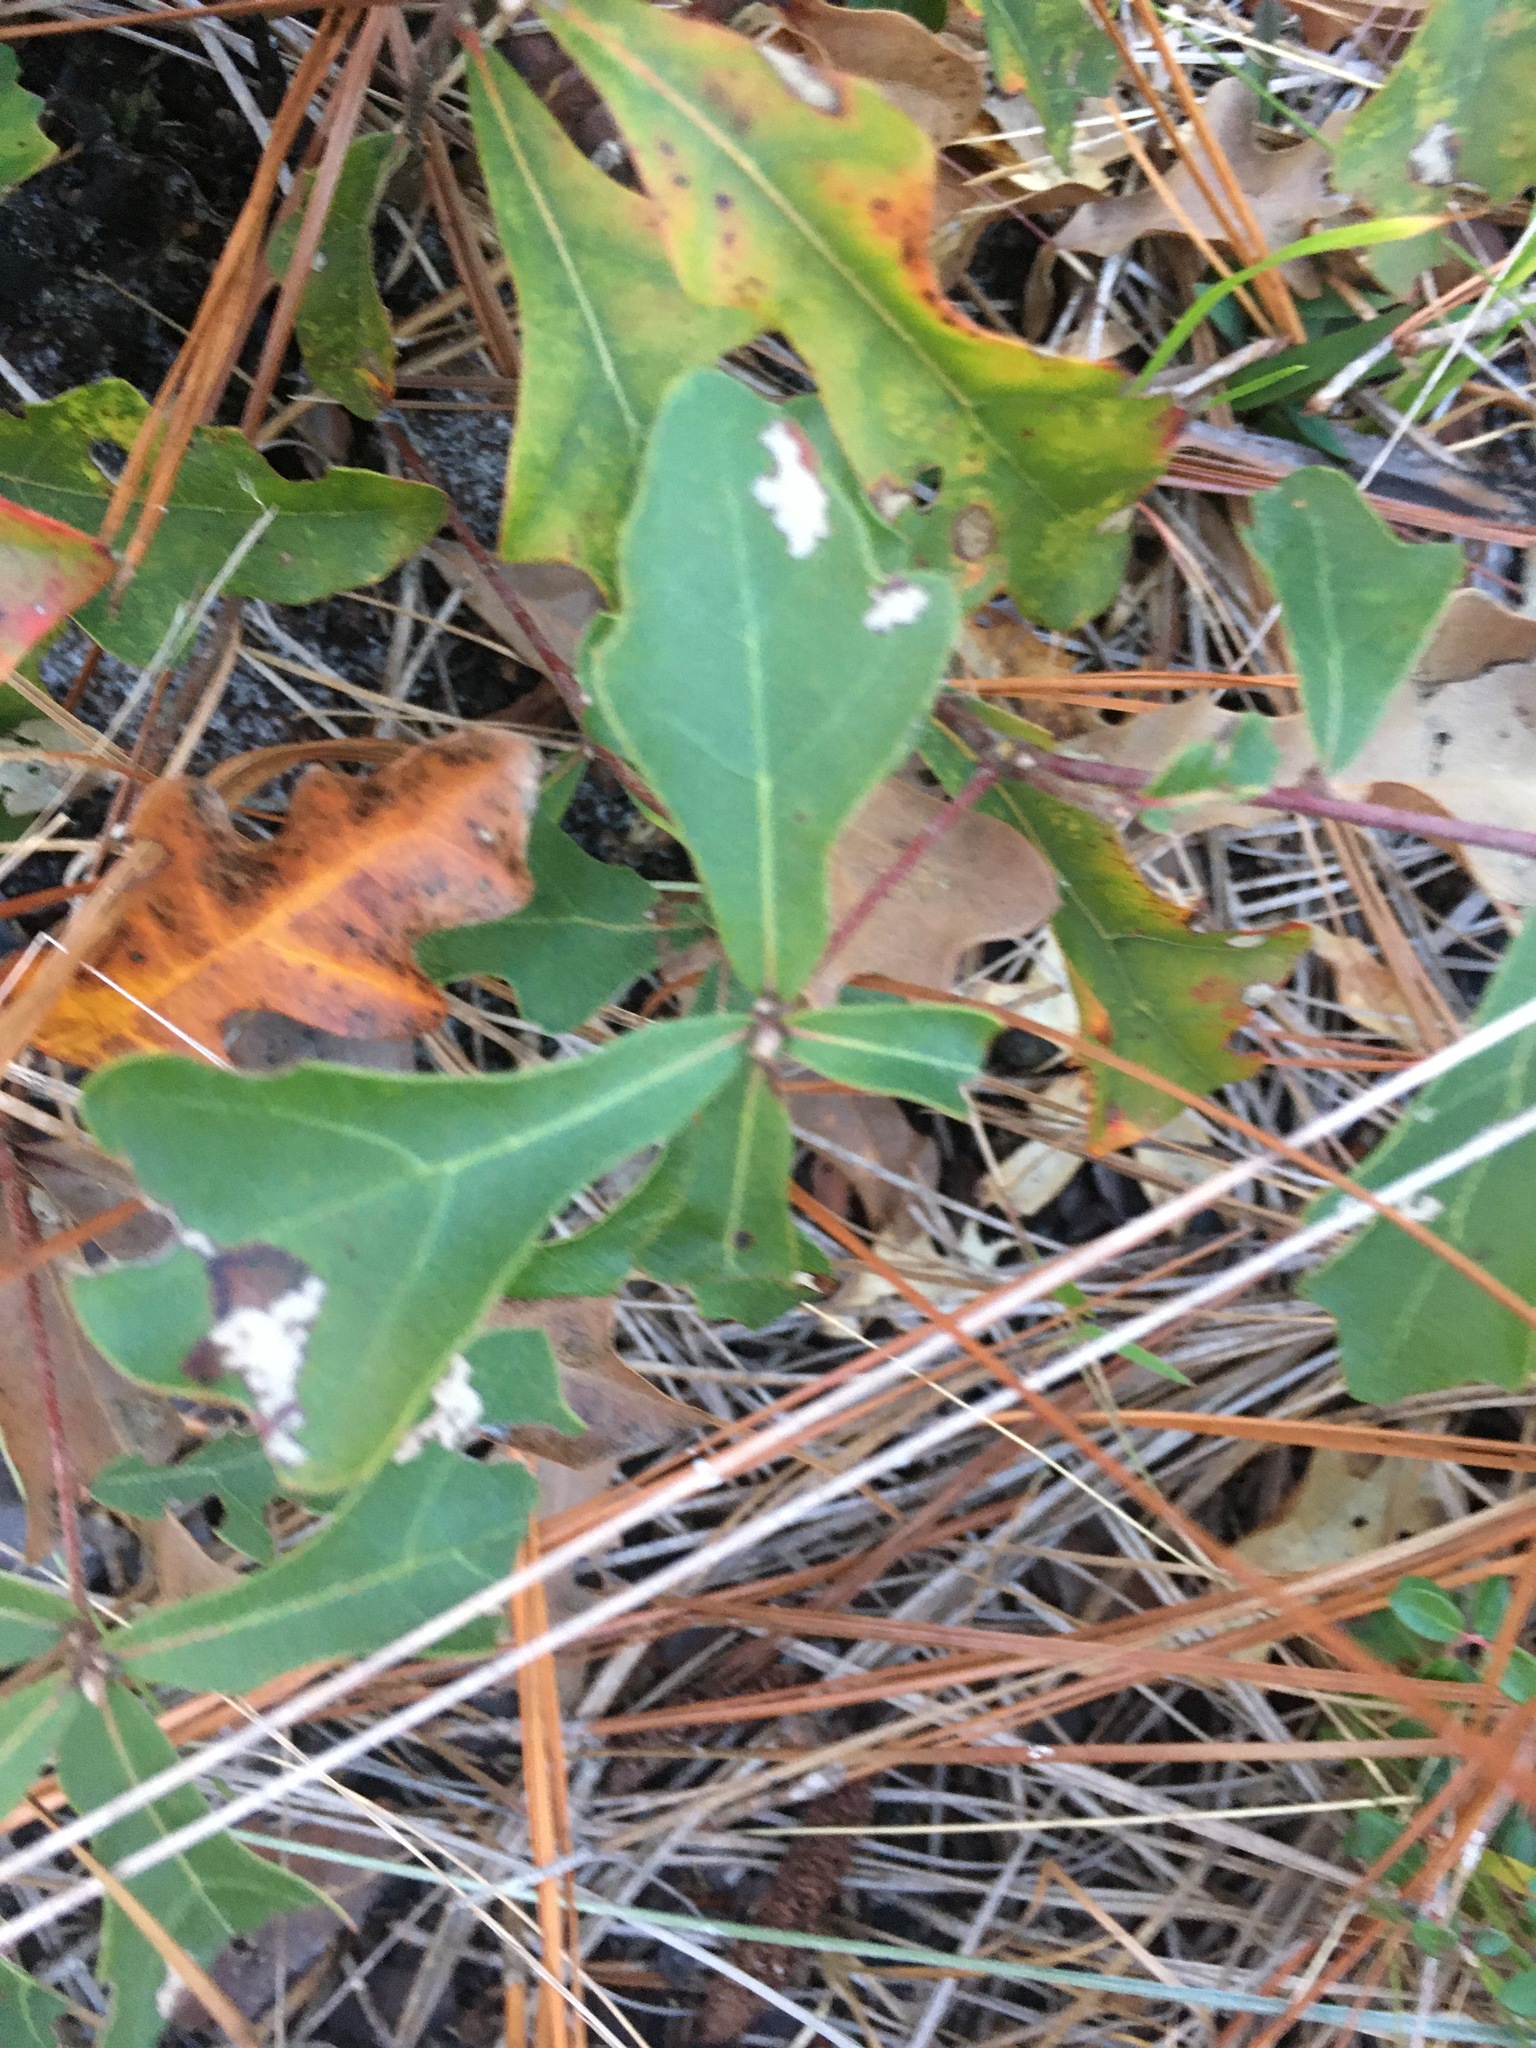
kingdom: Plantae
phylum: Tracheophyta
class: Magnoliopsida
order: Fagales
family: Fagaceae
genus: Quercus
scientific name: Quercus nigra
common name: Water oak
